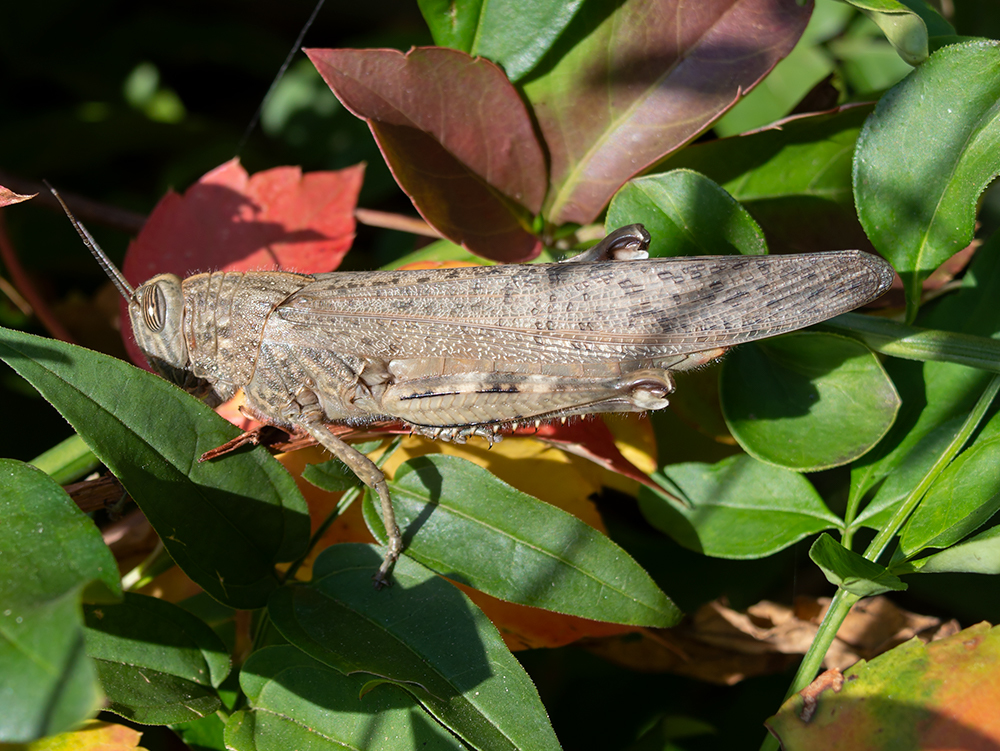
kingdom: Animalia
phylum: Arthropoda
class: Insecta
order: Orthoptera
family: Acrididae
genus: Anacridium
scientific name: Anacridium aegyptium
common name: Egyptian grasshopper
